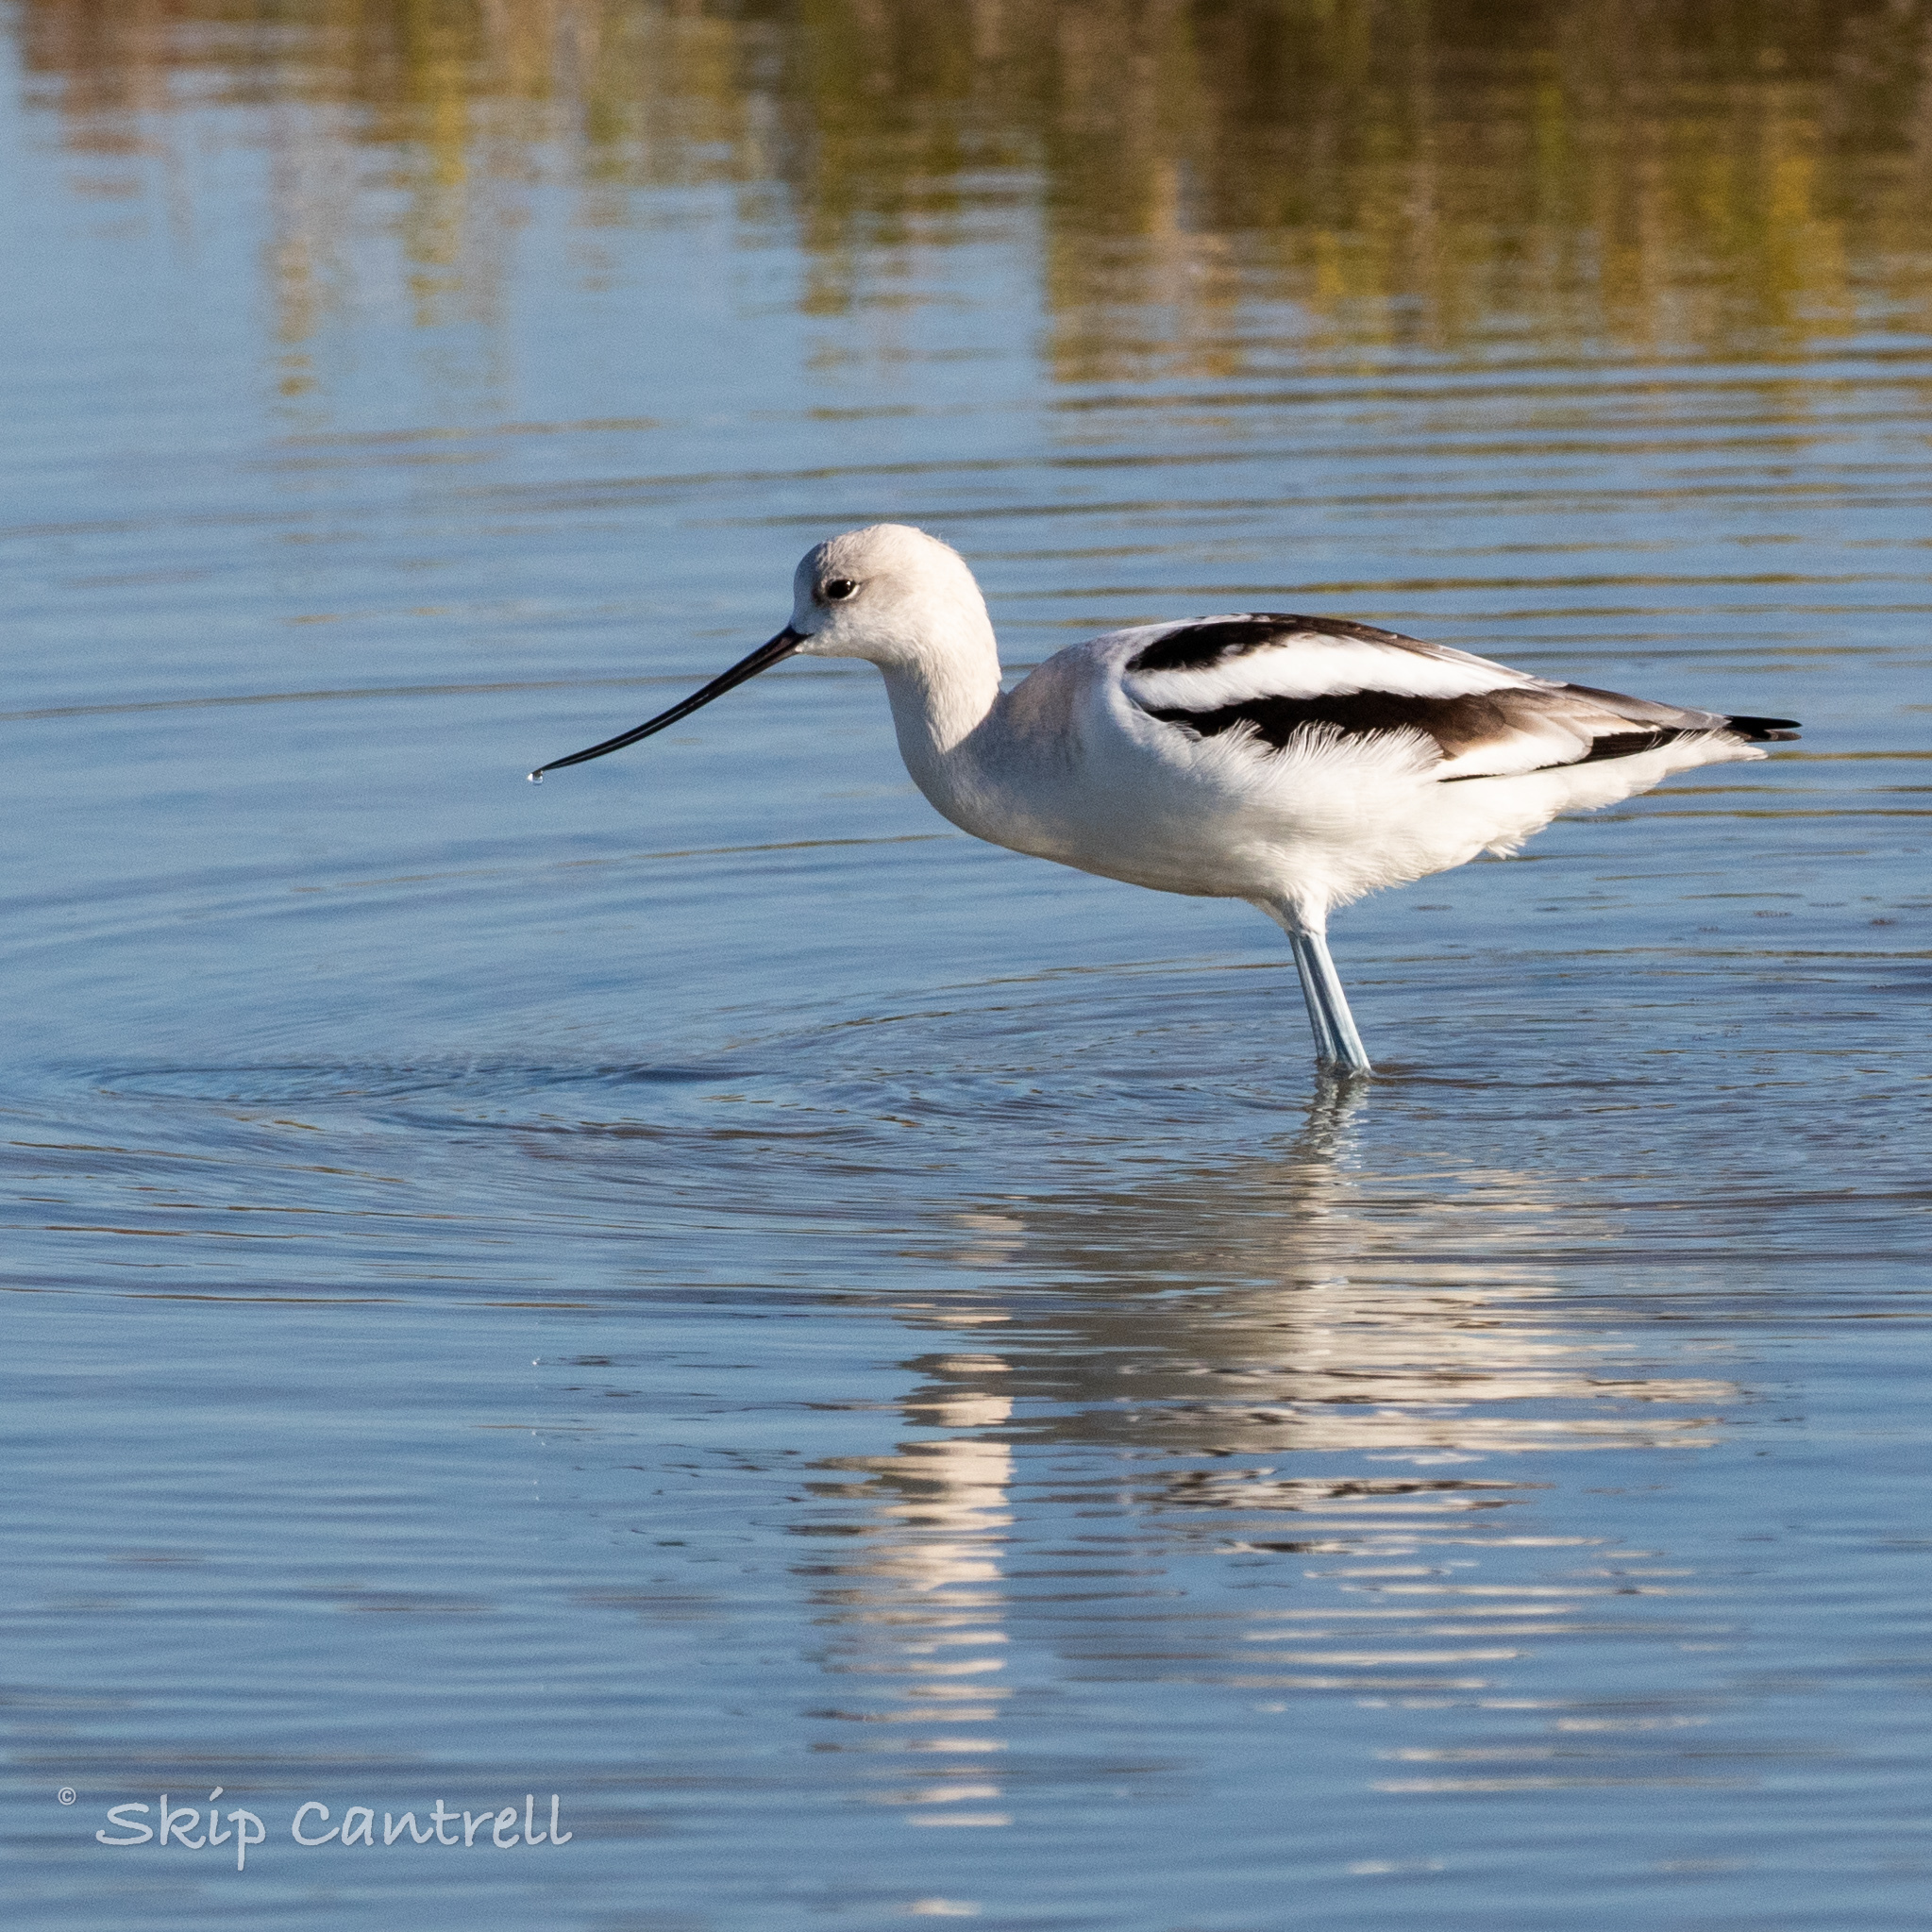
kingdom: Animalia
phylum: Chordata
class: Aves
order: Charadriiformes
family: Recurvirostridae
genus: Recurvirostra
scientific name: Recurvirostra americana
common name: American avocet
